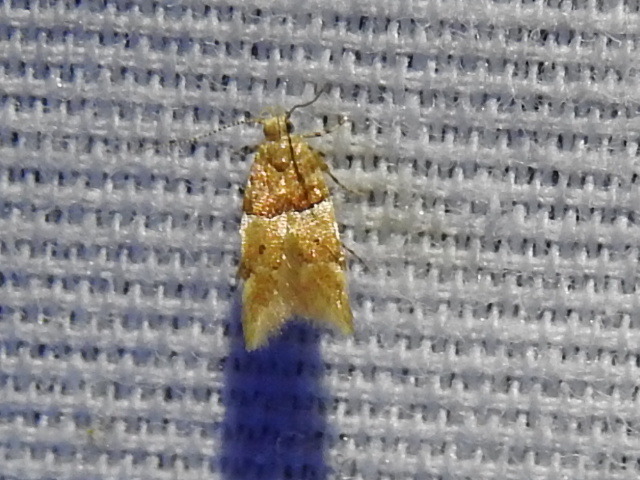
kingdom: Animalia
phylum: Arthropoda
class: Insecta
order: Lepidoptera
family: Gelechiidae
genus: Theisoa
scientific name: Theisoa constrictella
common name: Constricted twirler
